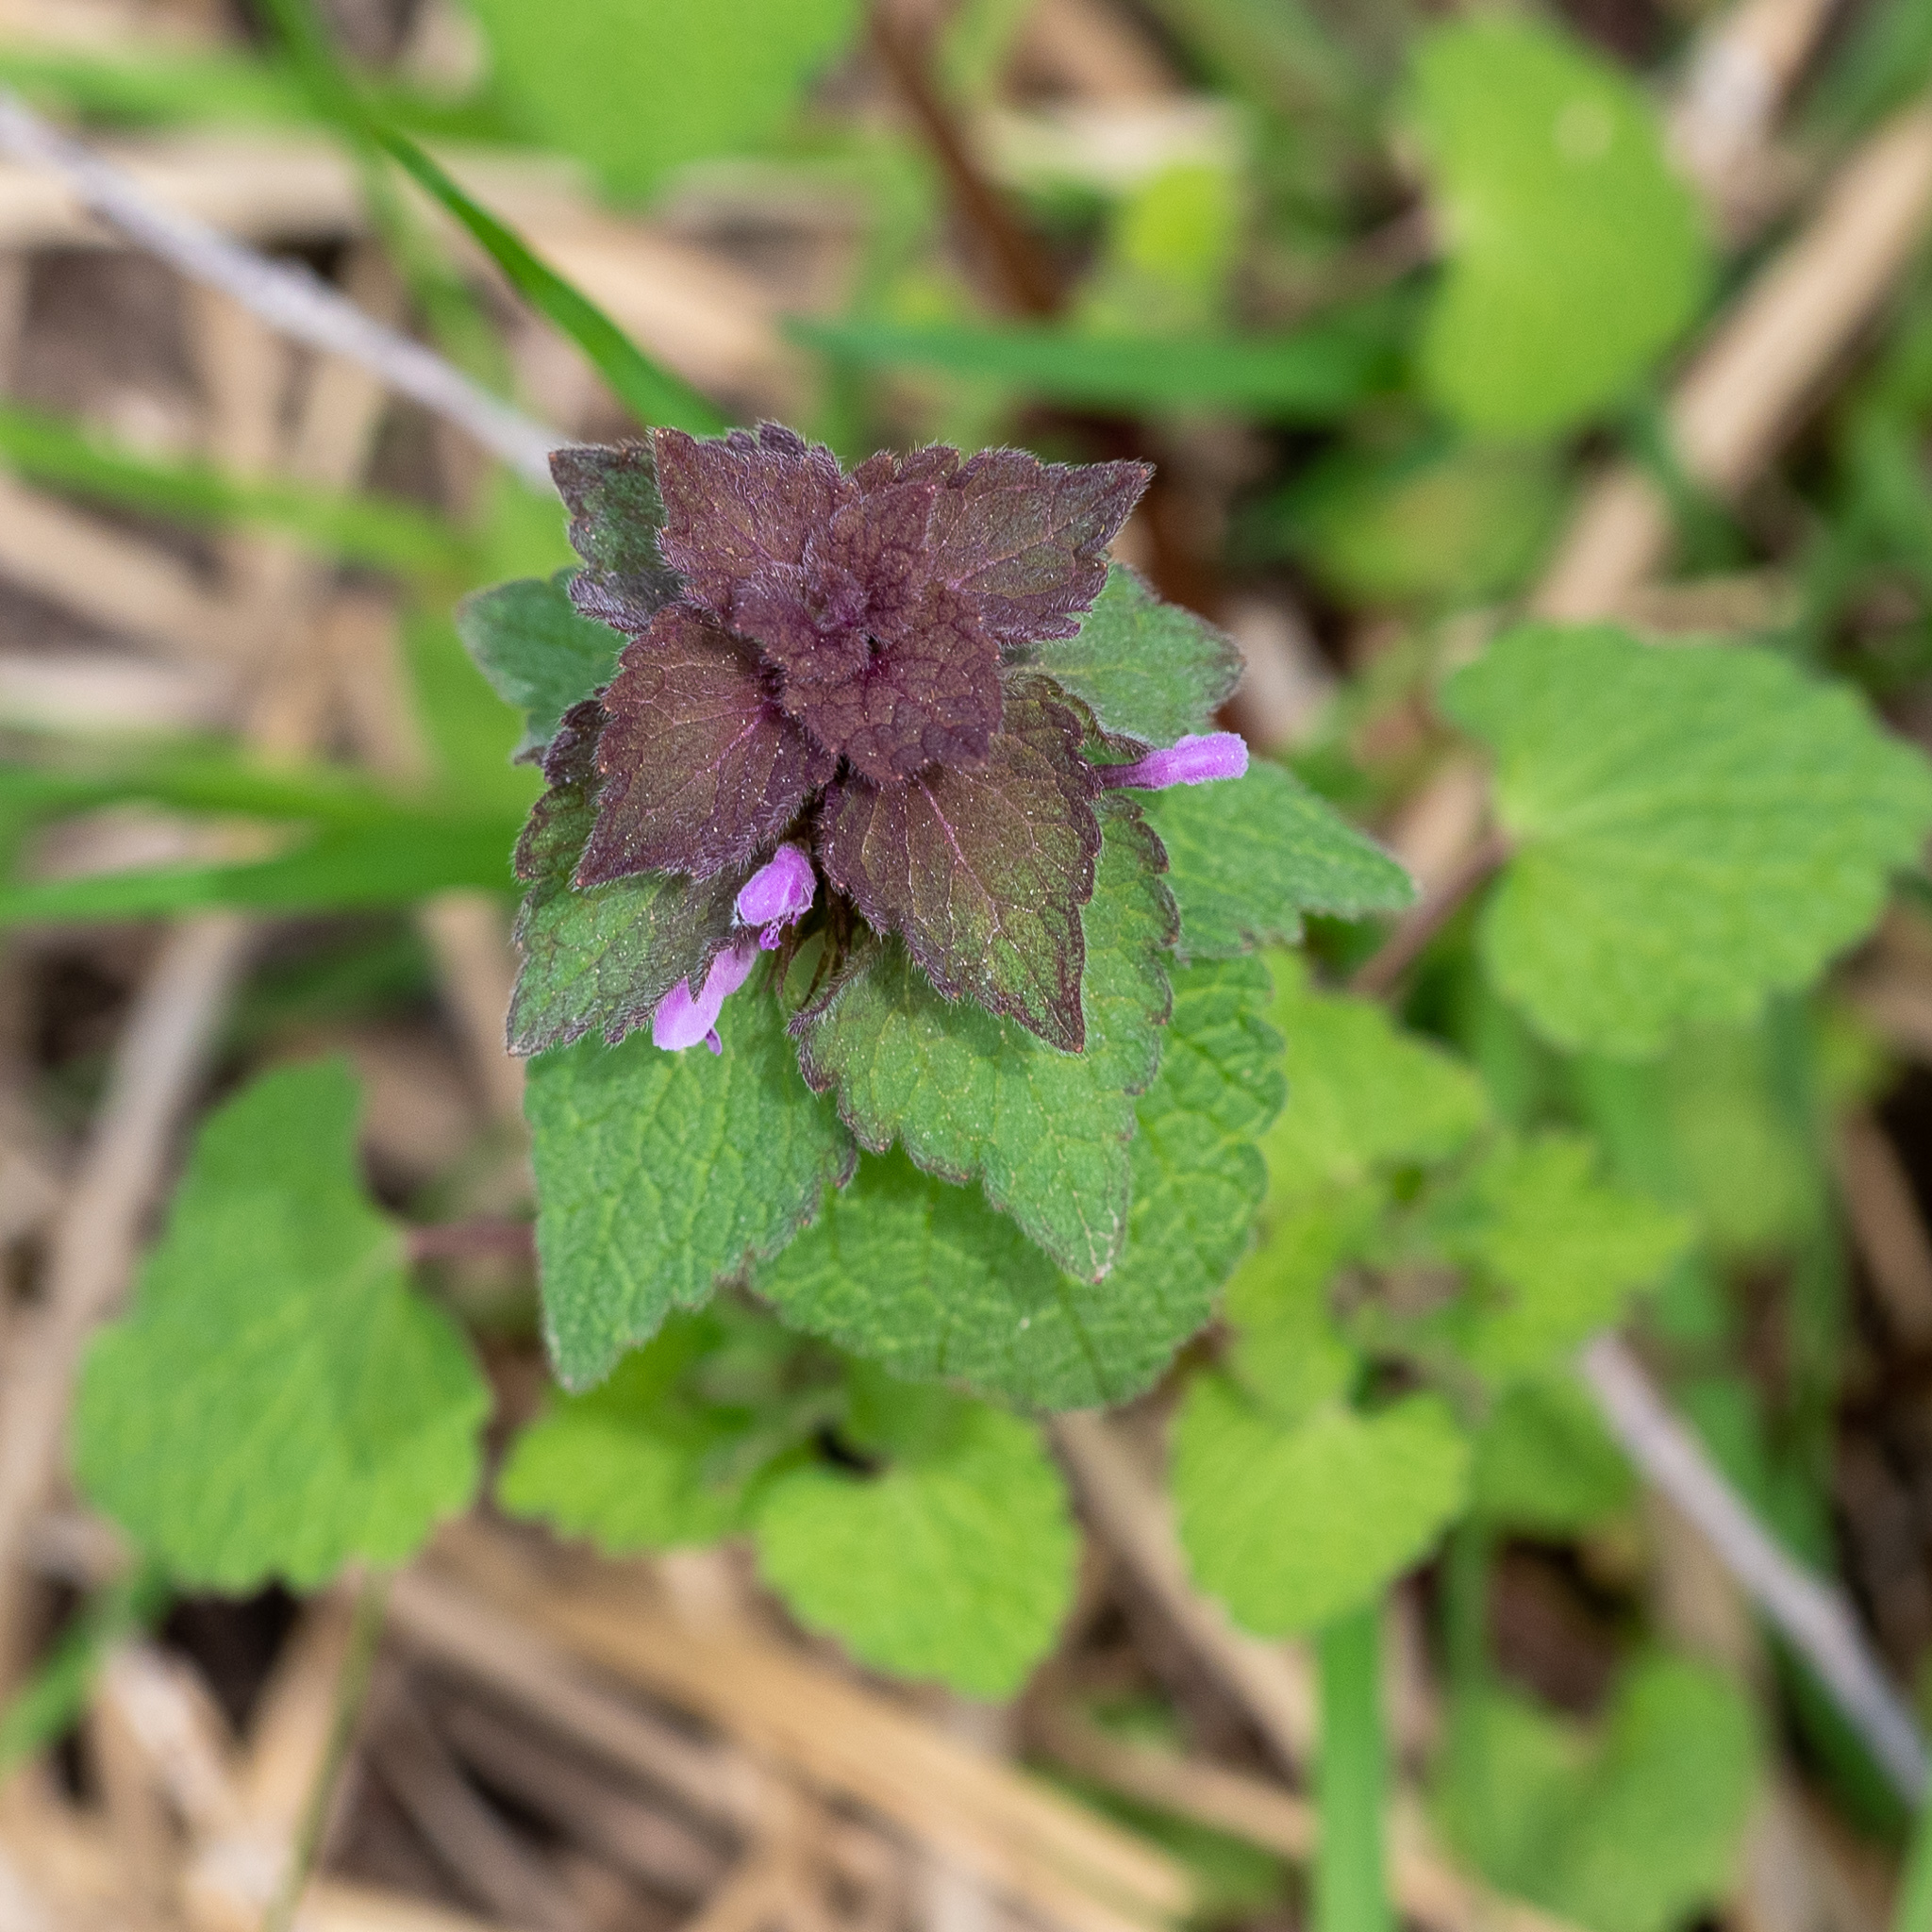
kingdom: Plantae
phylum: Tracheophyta
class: Magnoliopsida
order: Lamiales
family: Lamiaceae
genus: Lamium
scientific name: Lamium purpureum
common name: Red dead-nettle
